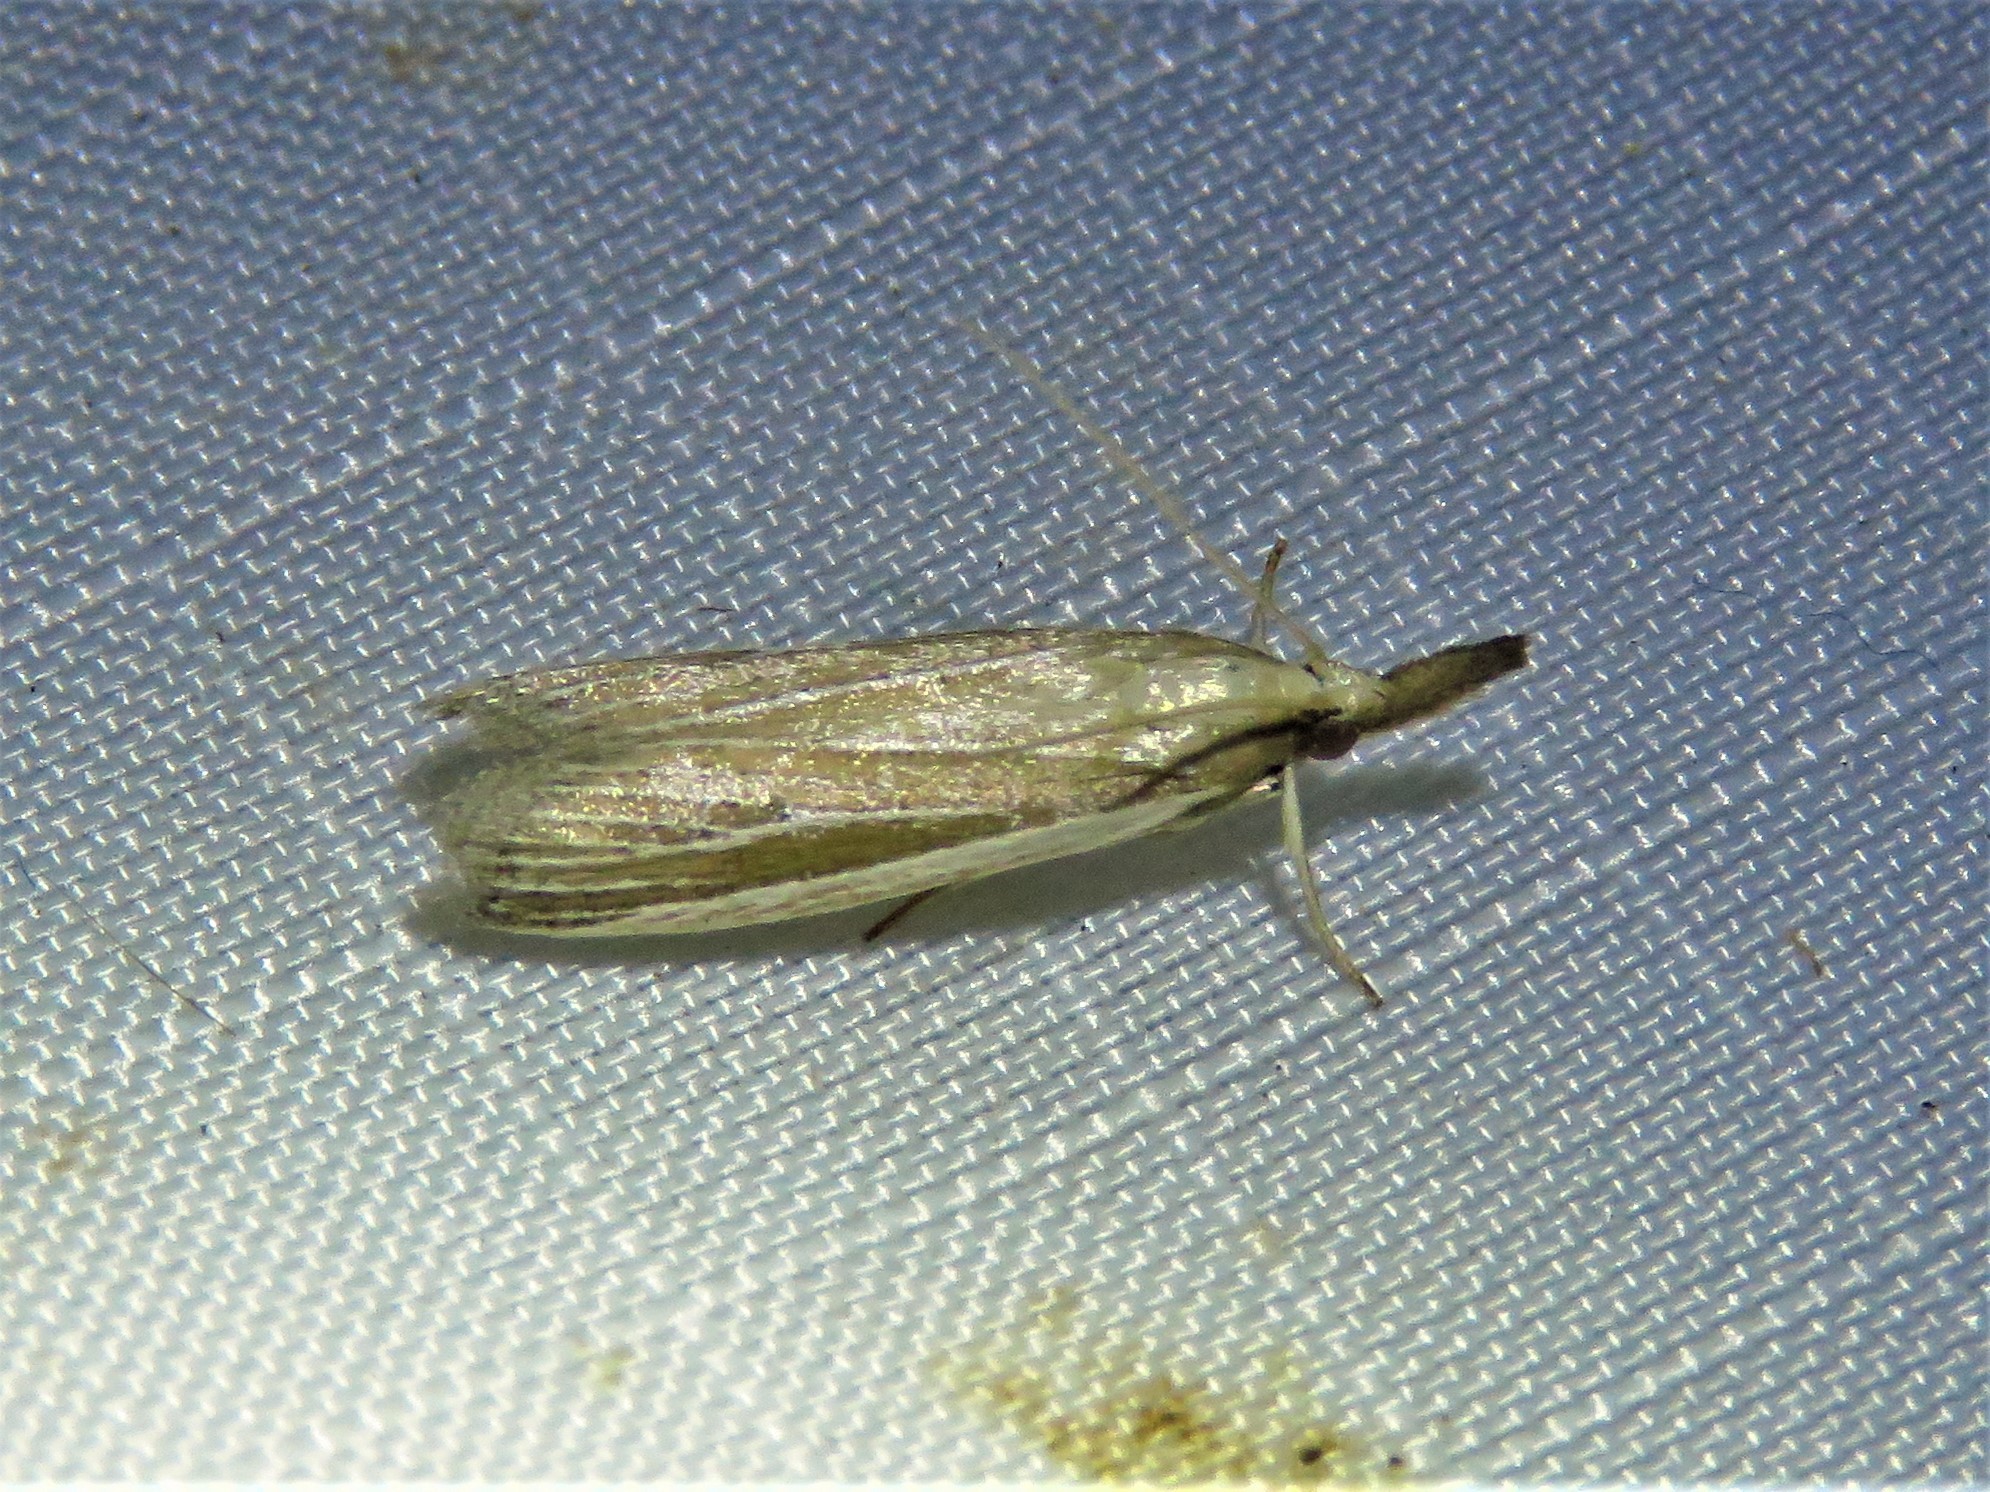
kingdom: Animalia
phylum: Arthropoda
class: Insecta
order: Lepidoptera
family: Pyralidae
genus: Peoria
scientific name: Peoria tetradella
